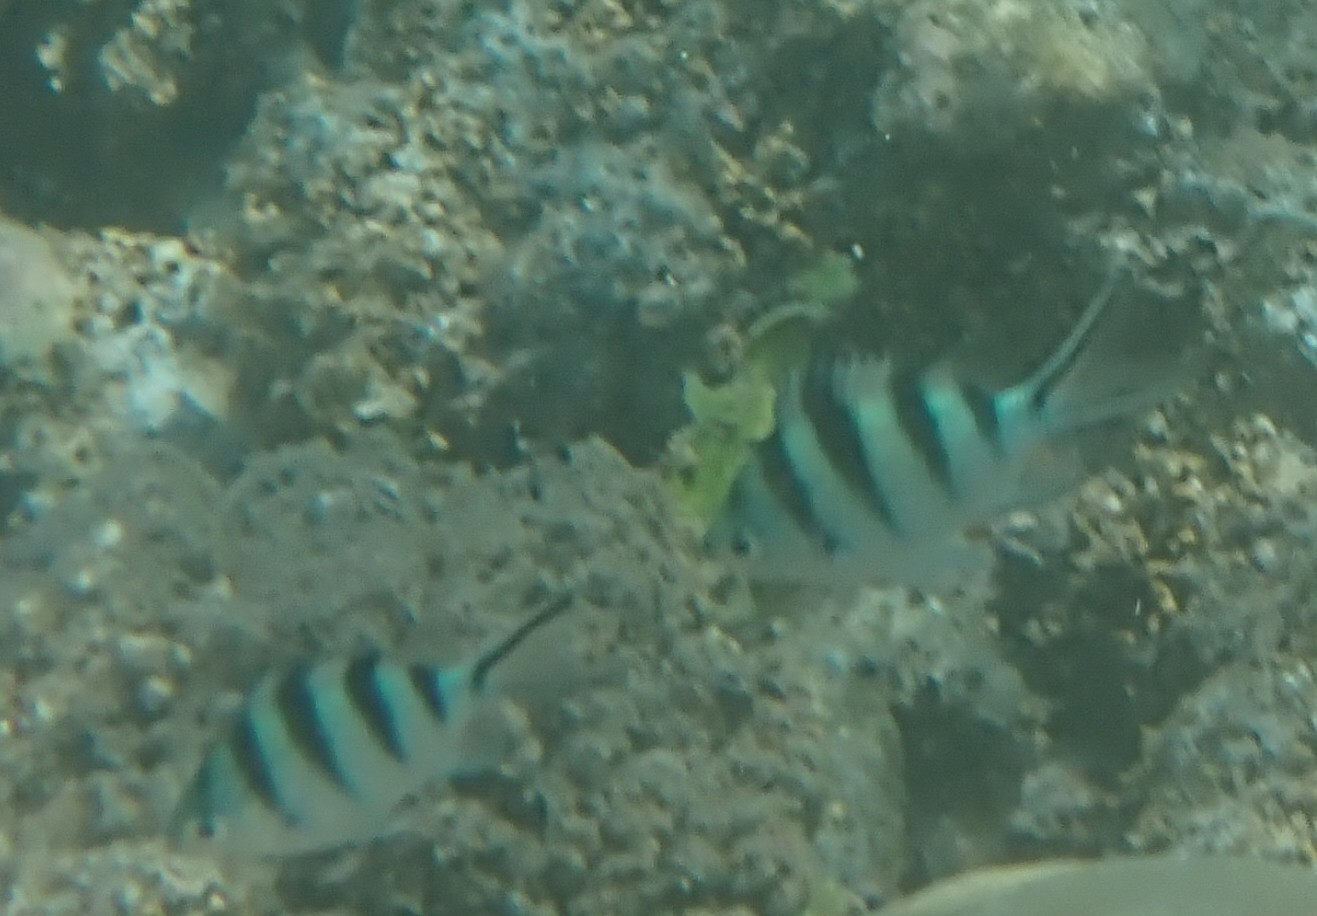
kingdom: Animalia
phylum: Chordata
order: Perciformes
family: Pomacentridae
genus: Abudefduf
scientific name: Abudefduf sexfasciatus
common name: Scissortail sergeant
